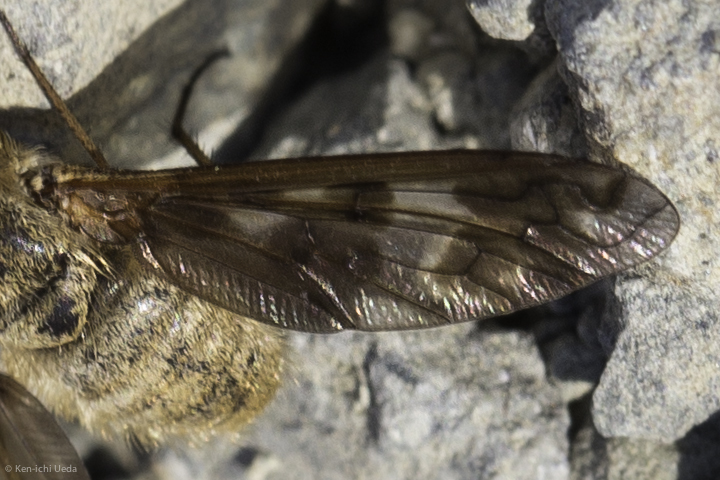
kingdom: Animalia
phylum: Arthropoda
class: Insecta
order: Diptera
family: Bombyliidae
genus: Dipalta
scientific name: Dipalta serpentina
